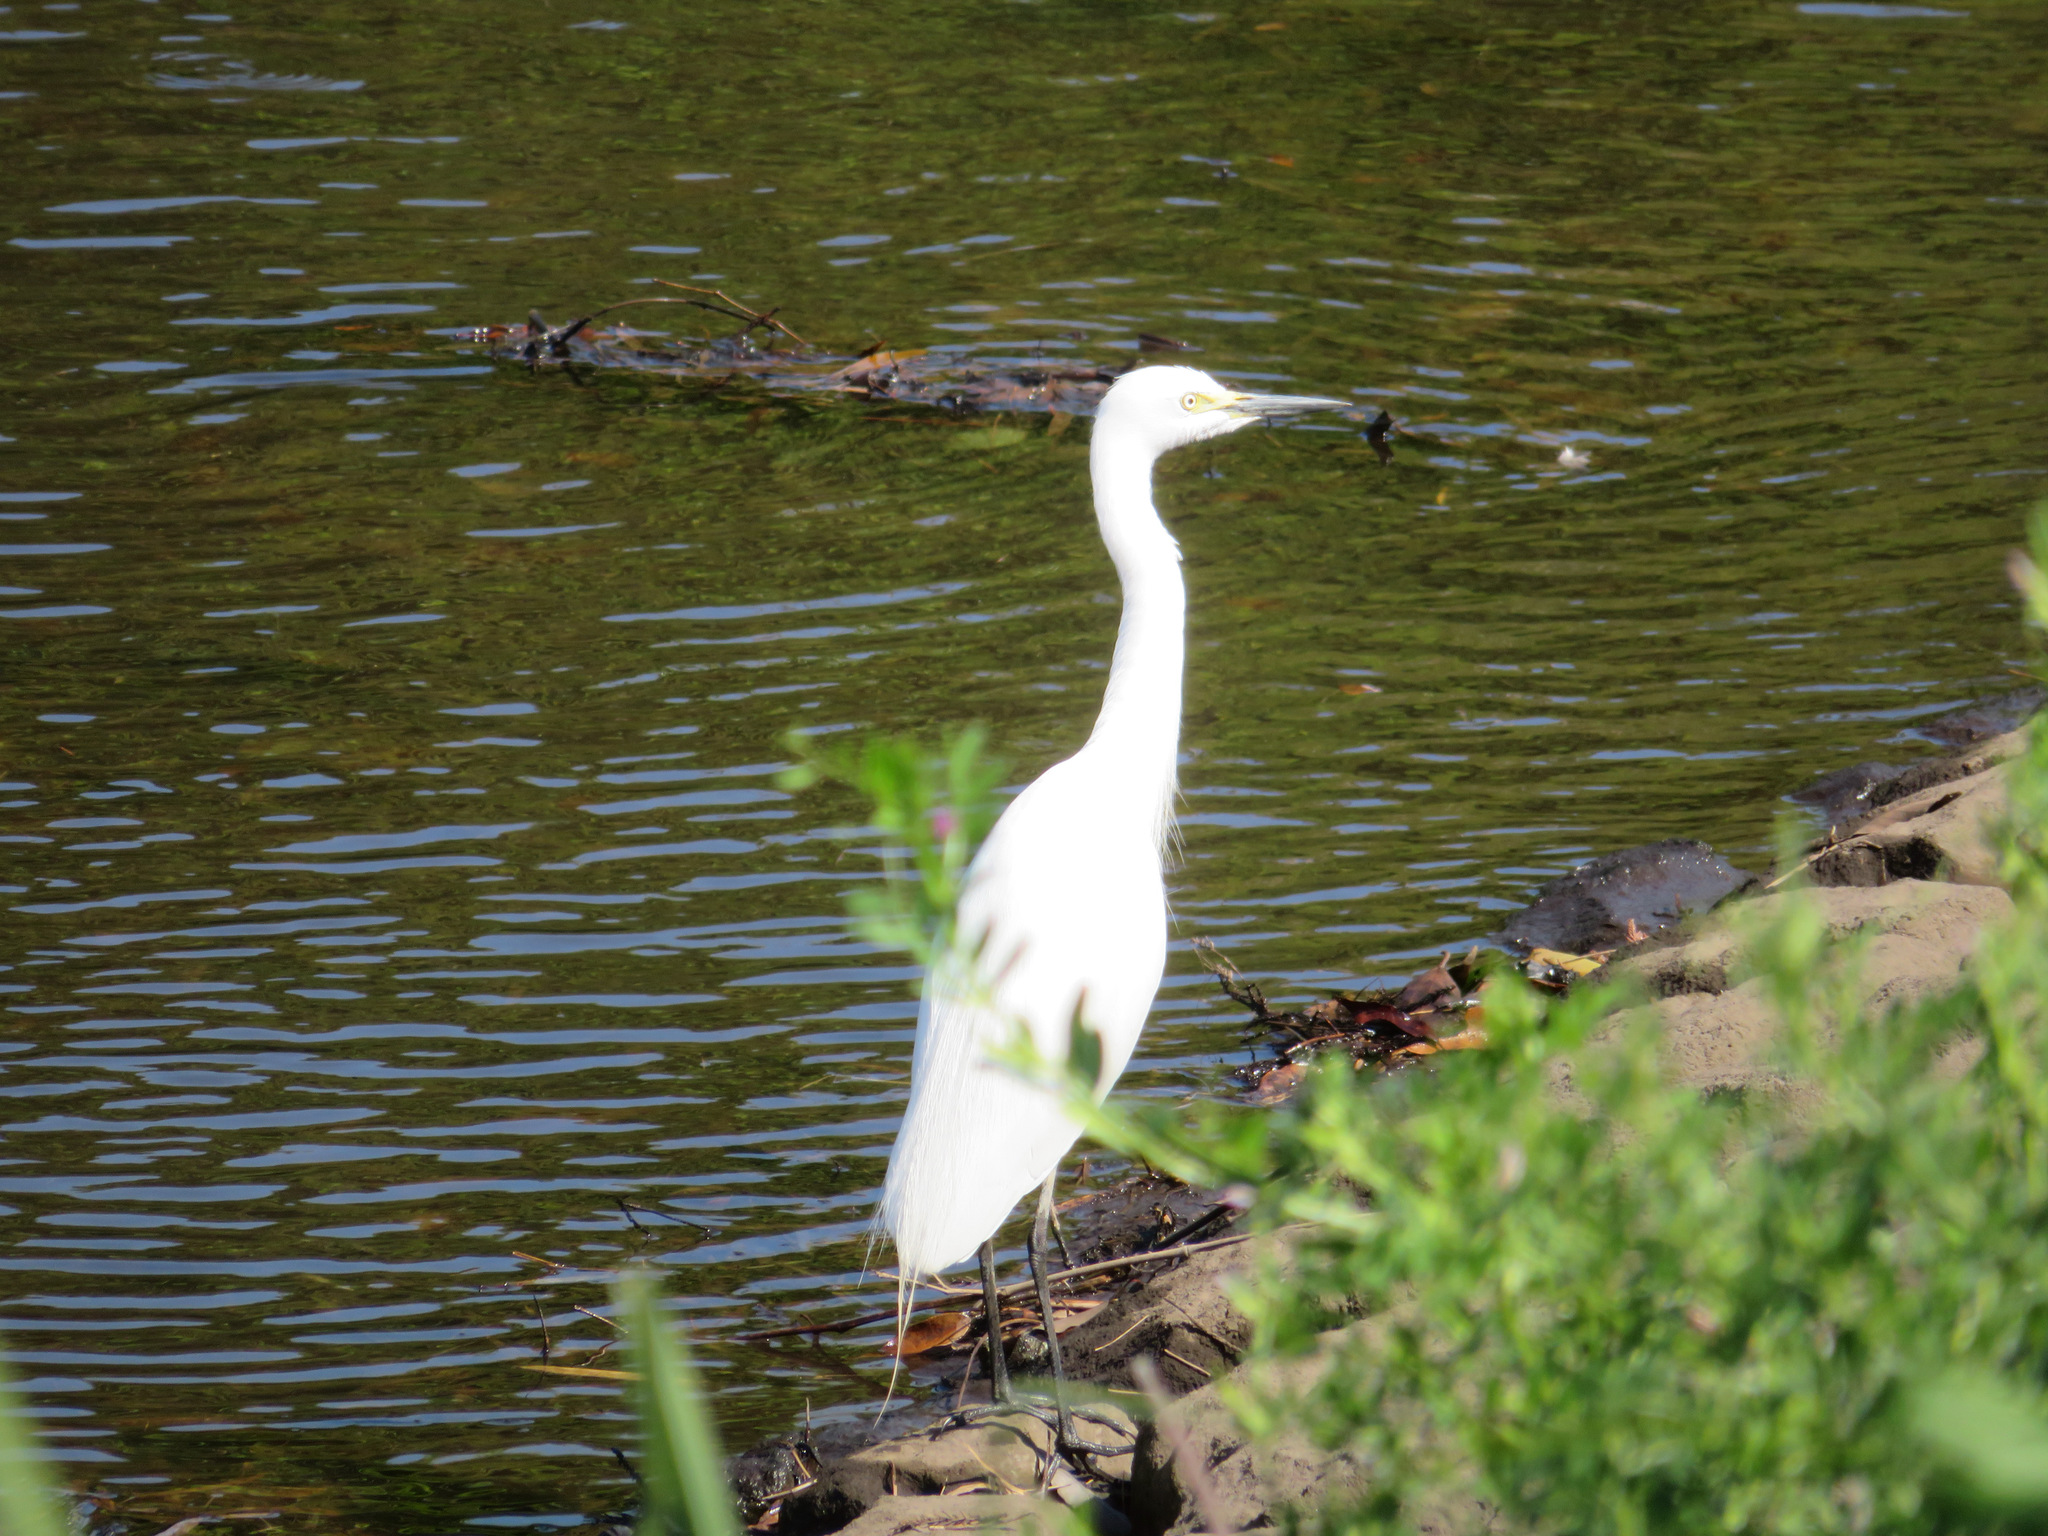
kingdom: Animalia
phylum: Chordata
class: Aves
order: Pelecaniformes
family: Ardeidae
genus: Egretta
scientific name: Egretta intermedia
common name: Intermediate egret
